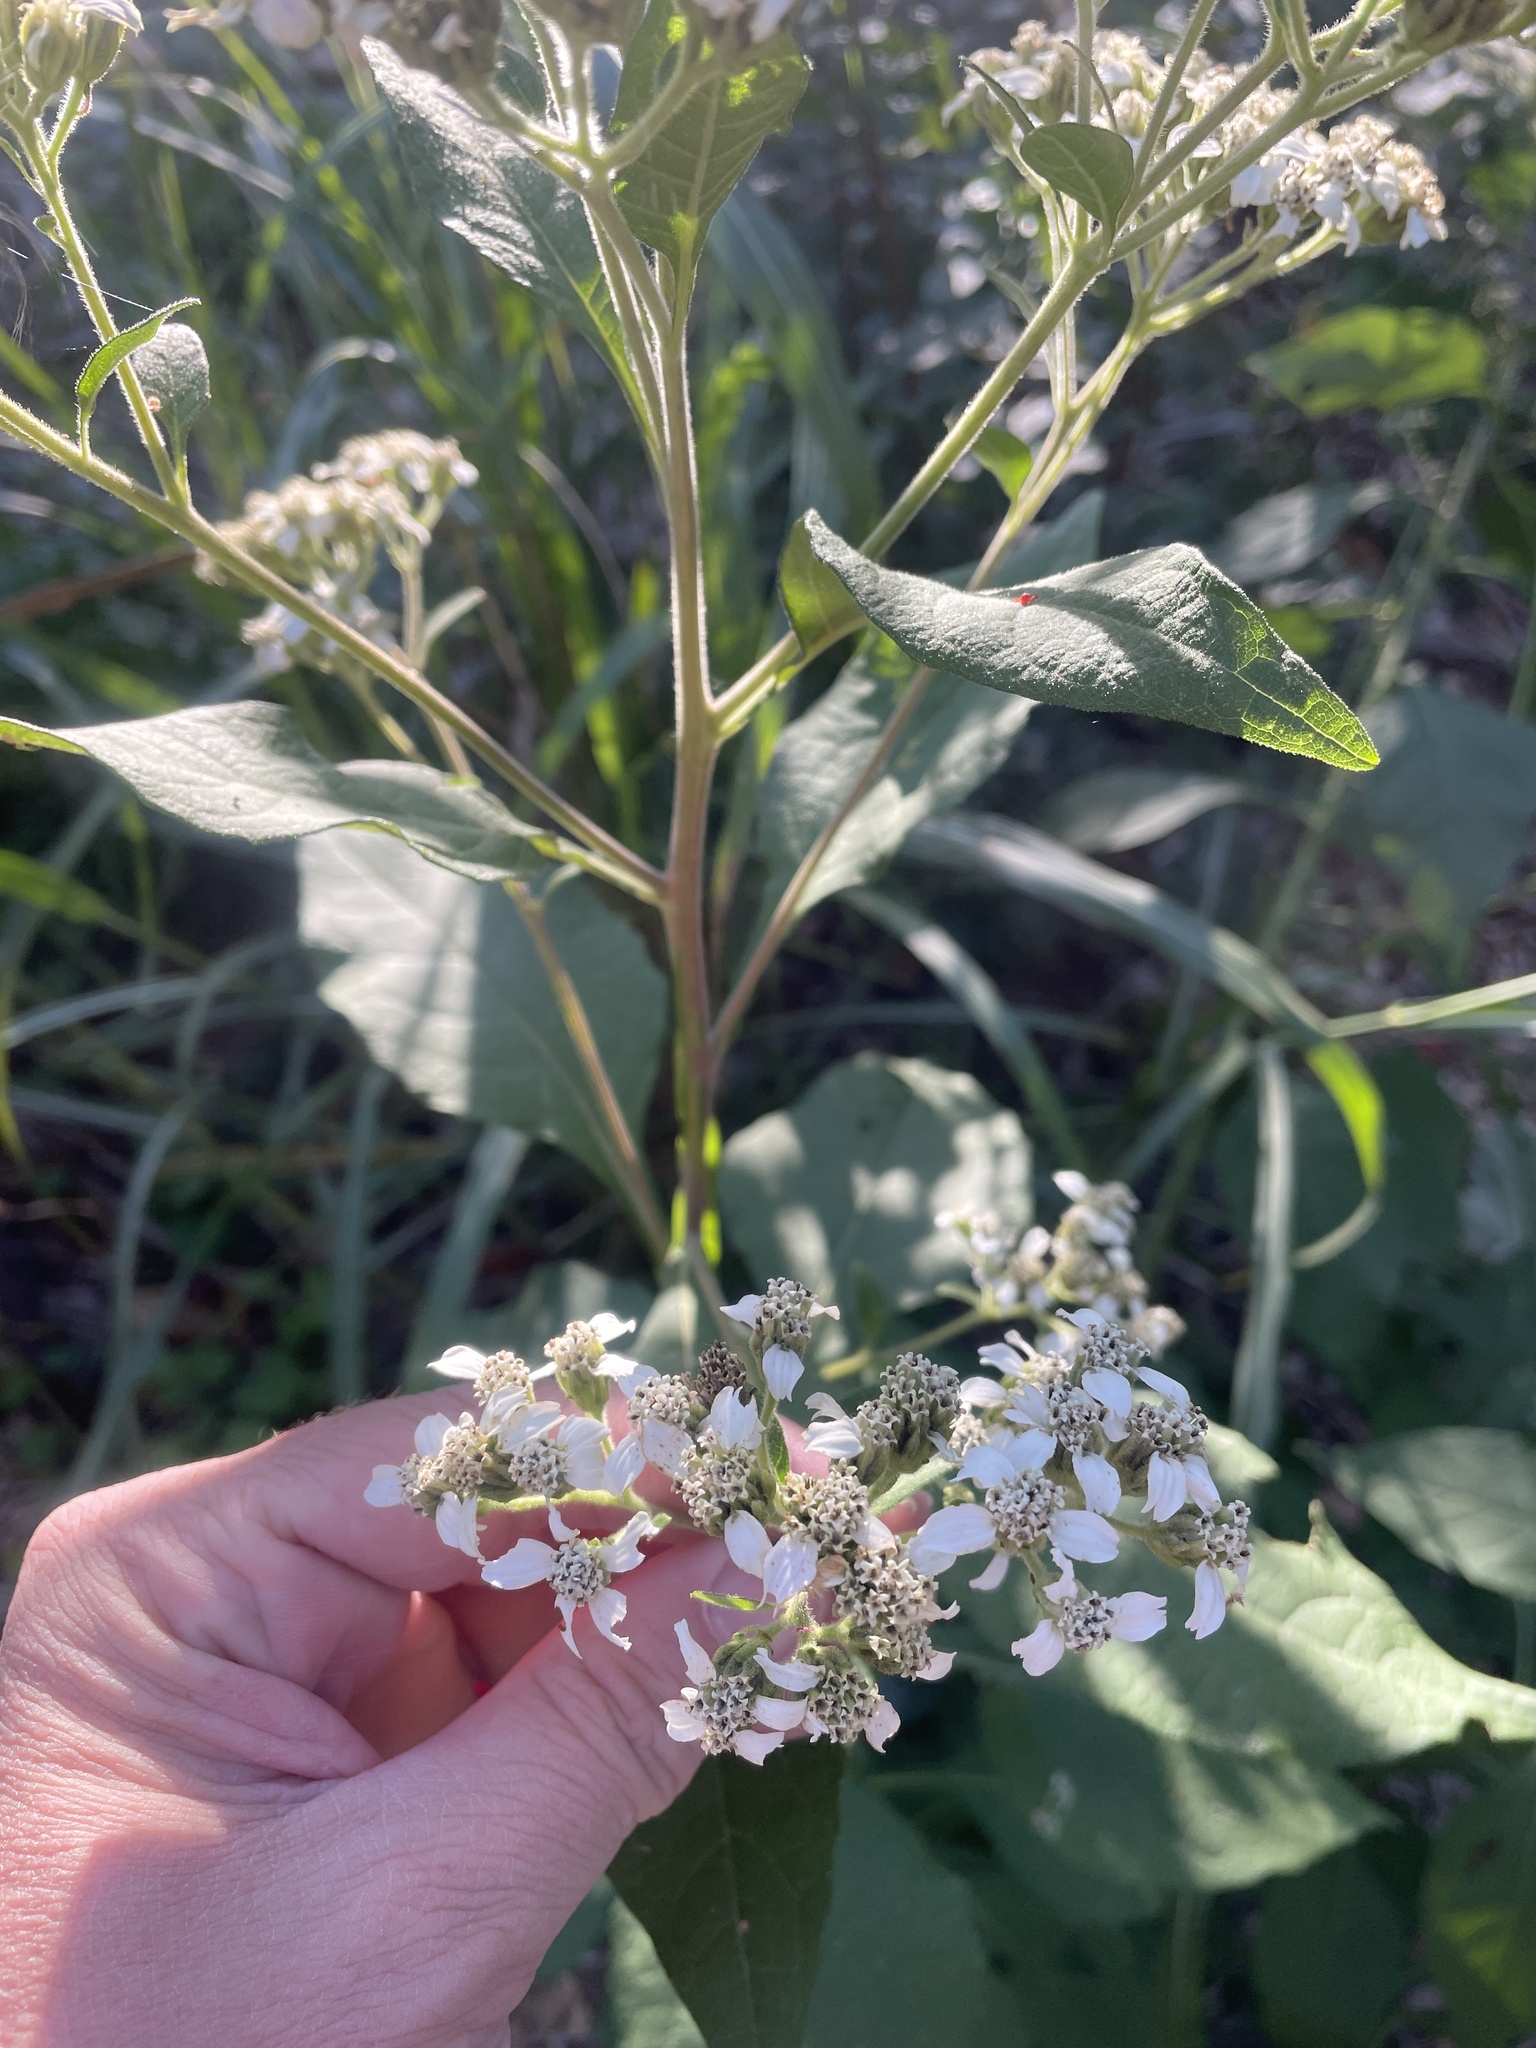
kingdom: Plantae
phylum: Tracheophyta
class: Magnoliopsida
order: Asterales
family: Asteraceae
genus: Verbesina
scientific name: Verbesina virginica
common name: Frostweed
